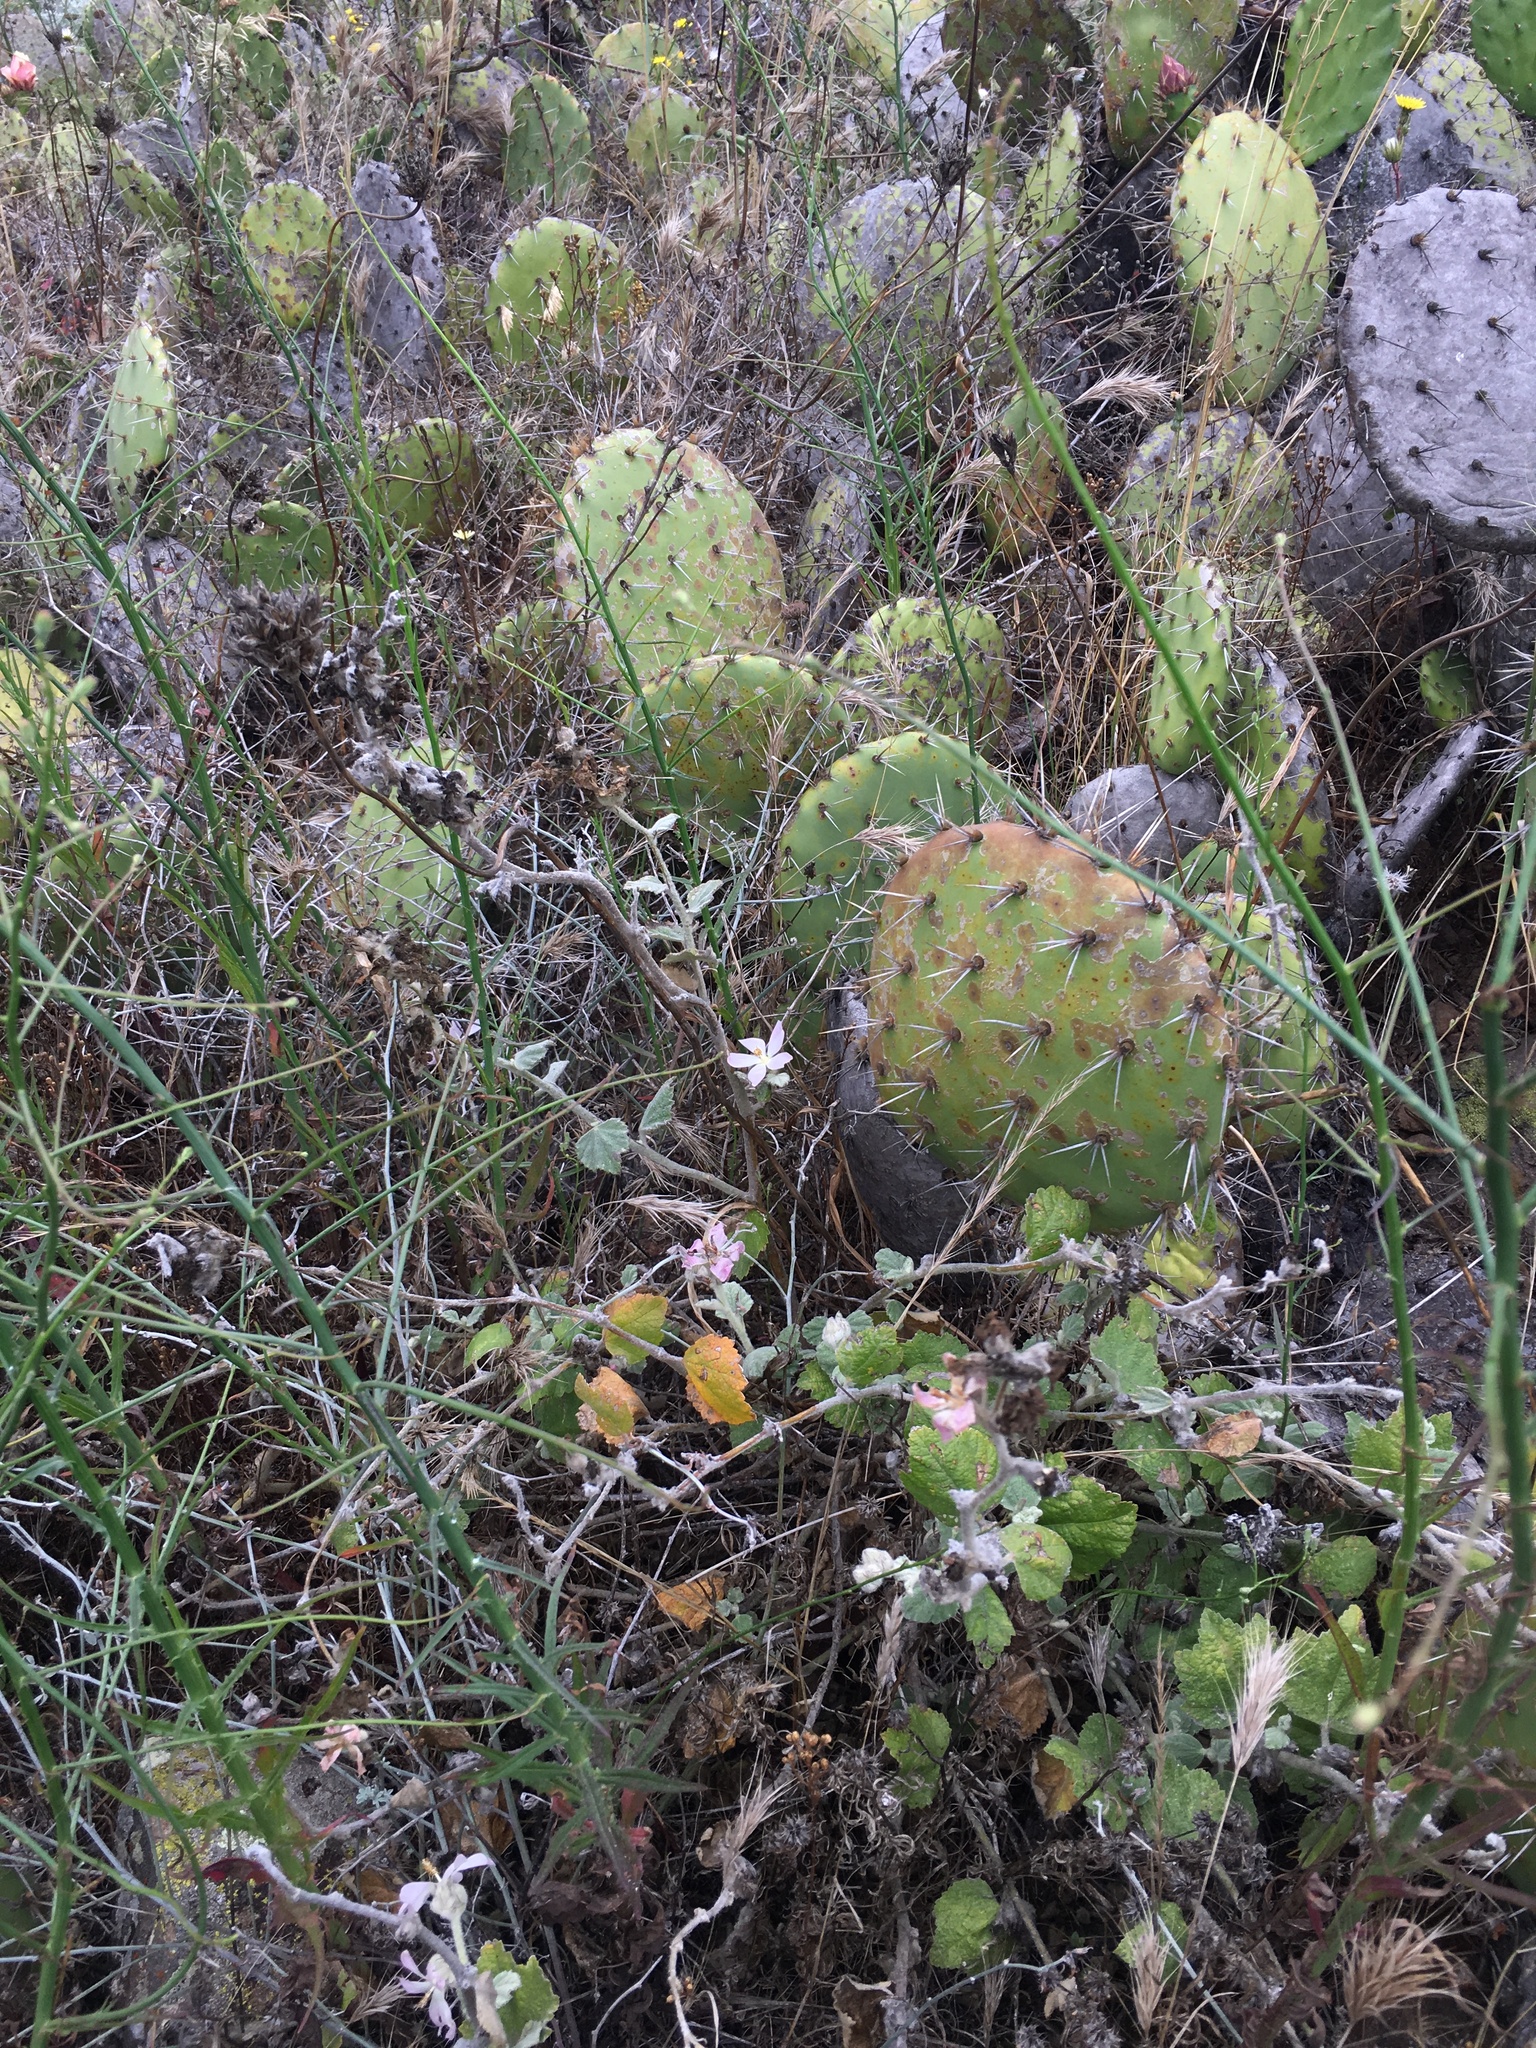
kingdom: Plantae
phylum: Tracheophyta
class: Magnoliopsida
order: Malvales
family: Malvaceae
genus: Malacothamnus
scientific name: Malacothamnus clementinus
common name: San clemente island bush-mallow
